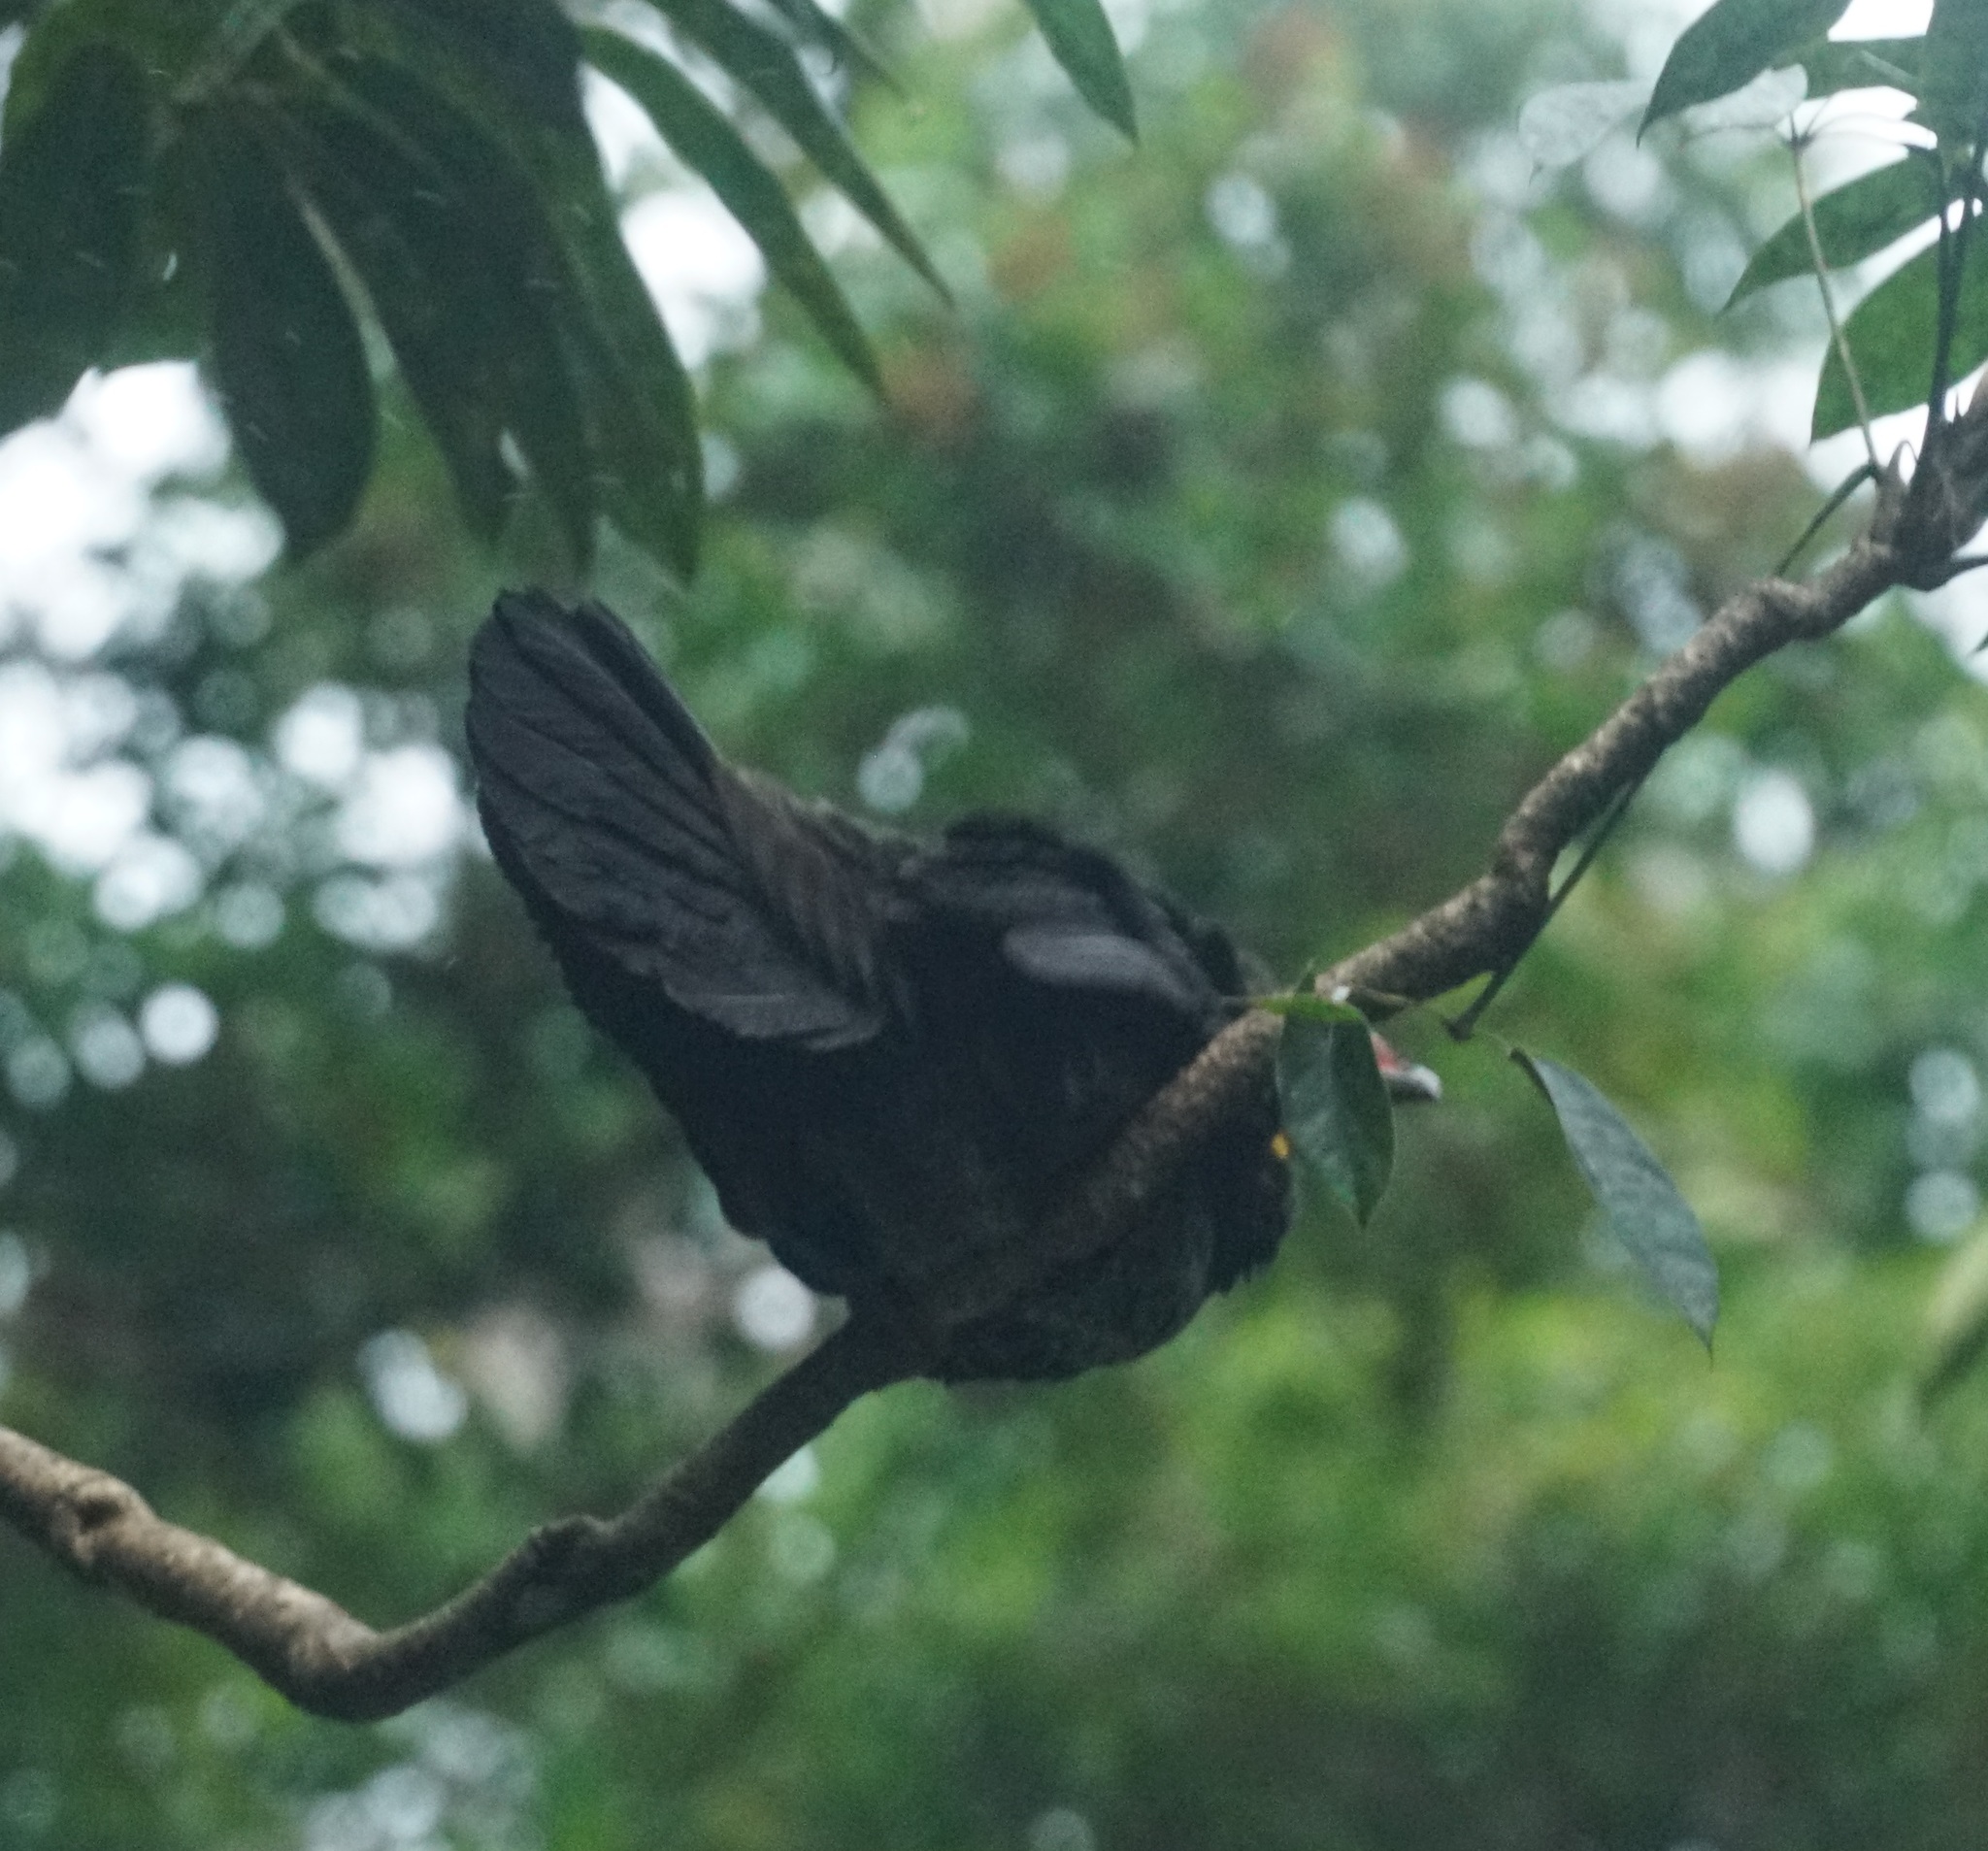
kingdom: Animalia
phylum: Chordata
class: Aves
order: Galliformes
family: Megapodiidae
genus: Alectura
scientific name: Alectura lathami
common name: Australian brushturkey
